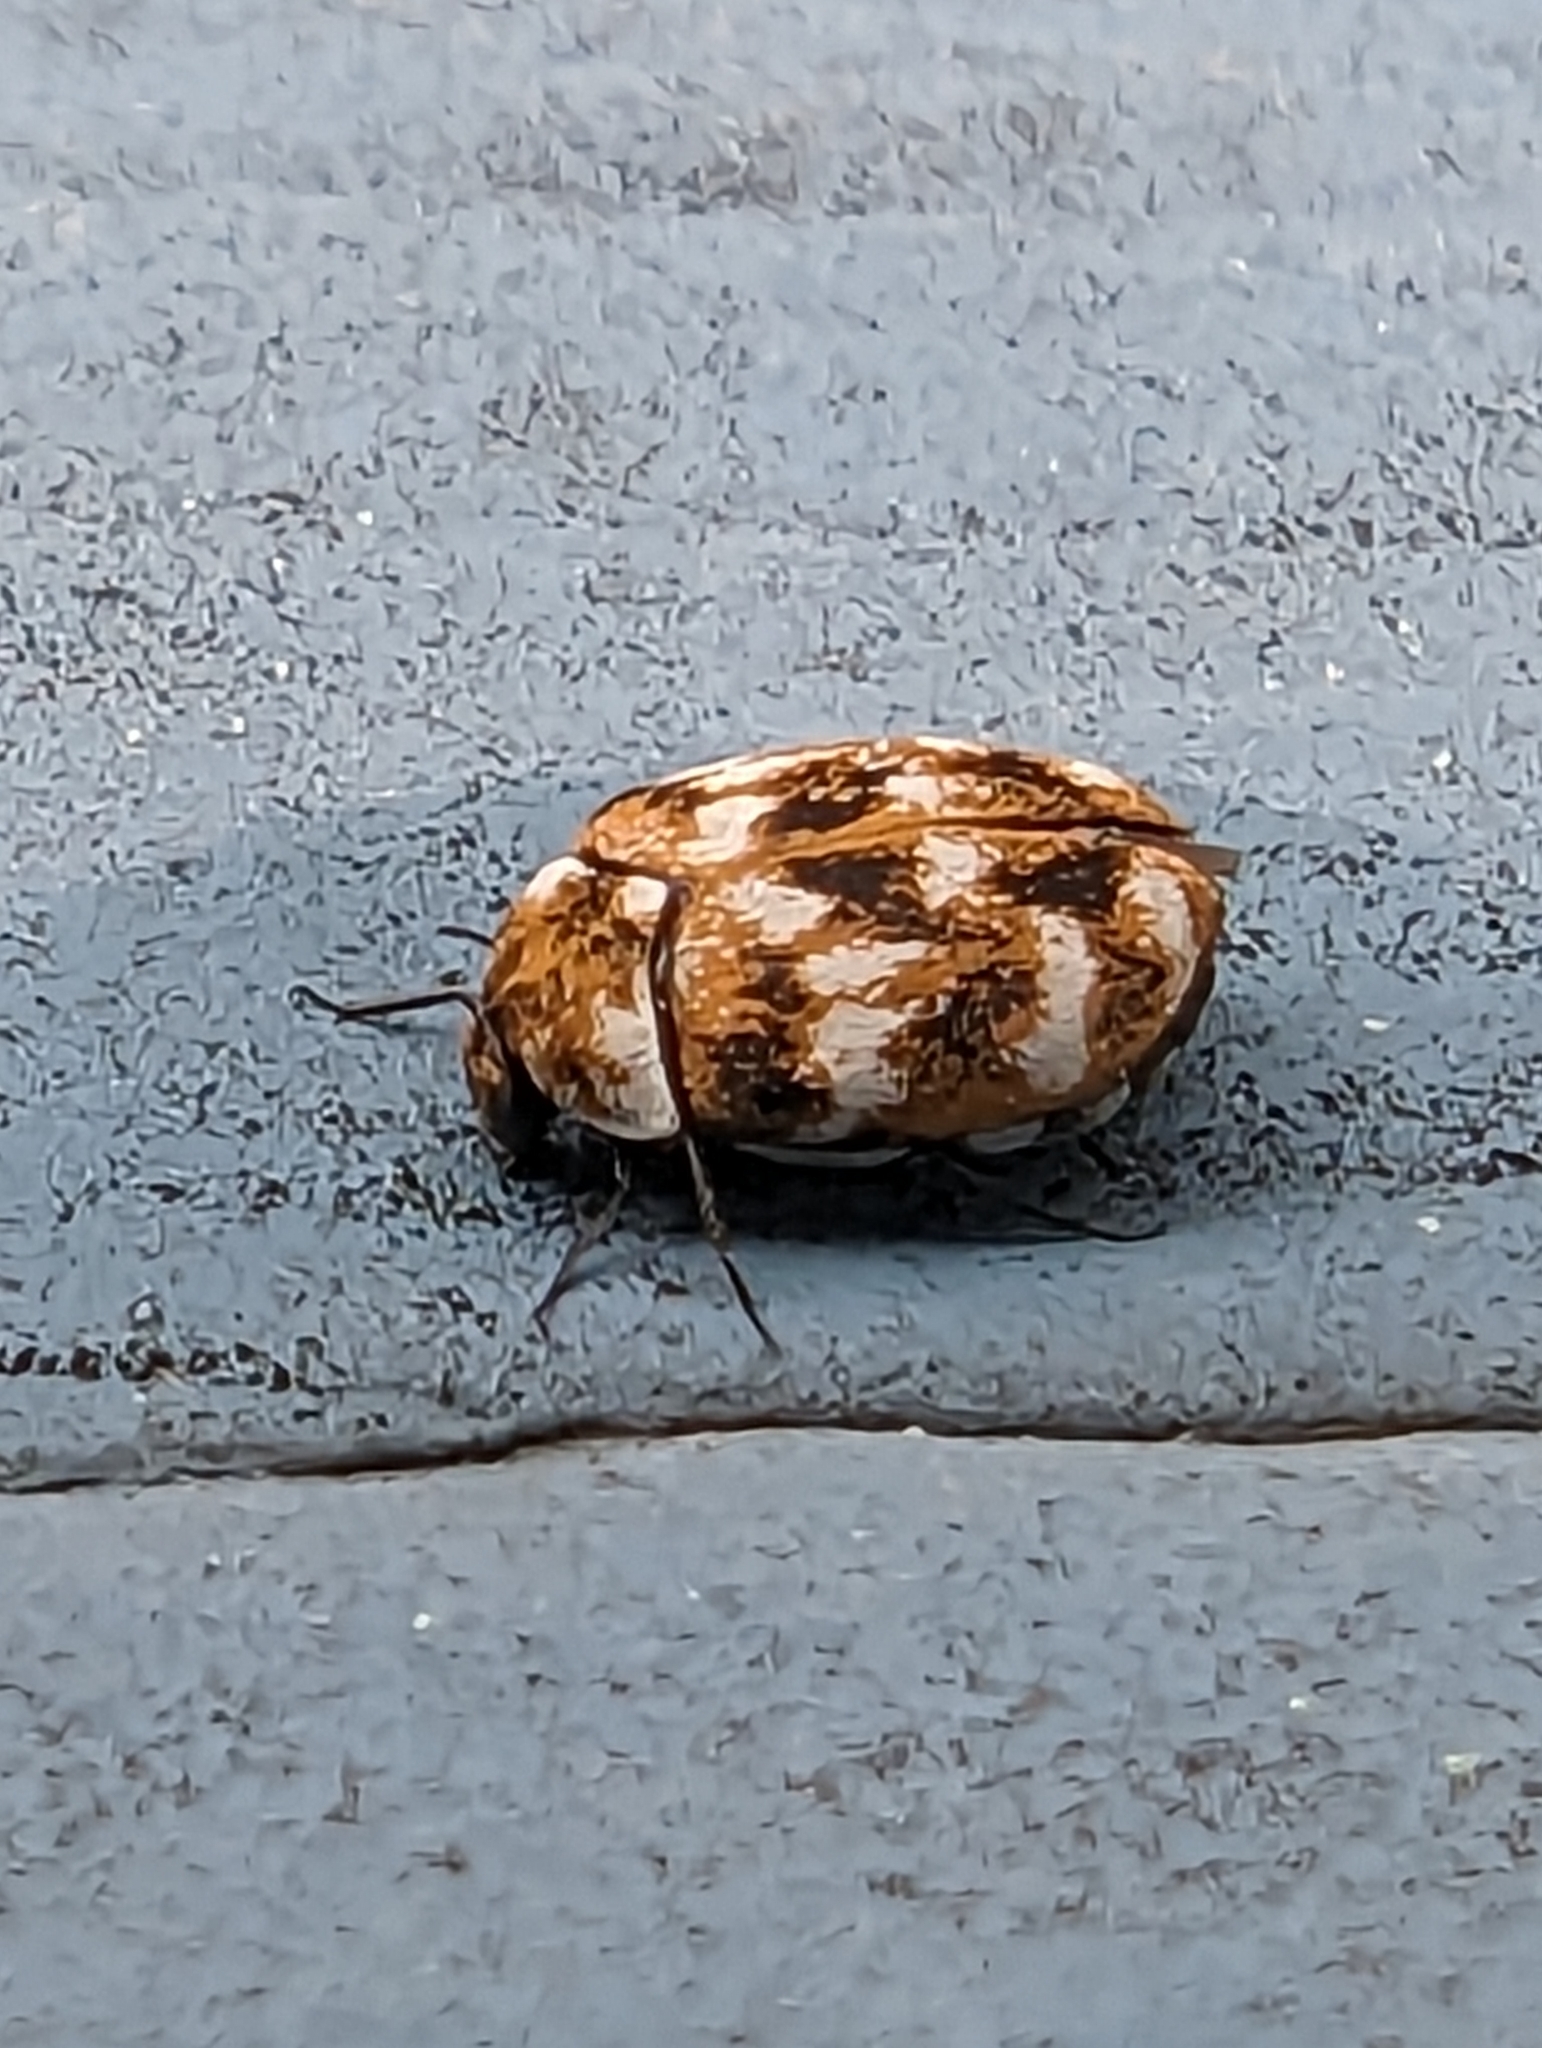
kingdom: Animalia
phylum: Arthropoda
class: Insecta
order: Coleoptera
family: Dermestidae
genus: Anthrenus
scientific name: Anthrenus verbasci
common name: Varied carpet beetle
